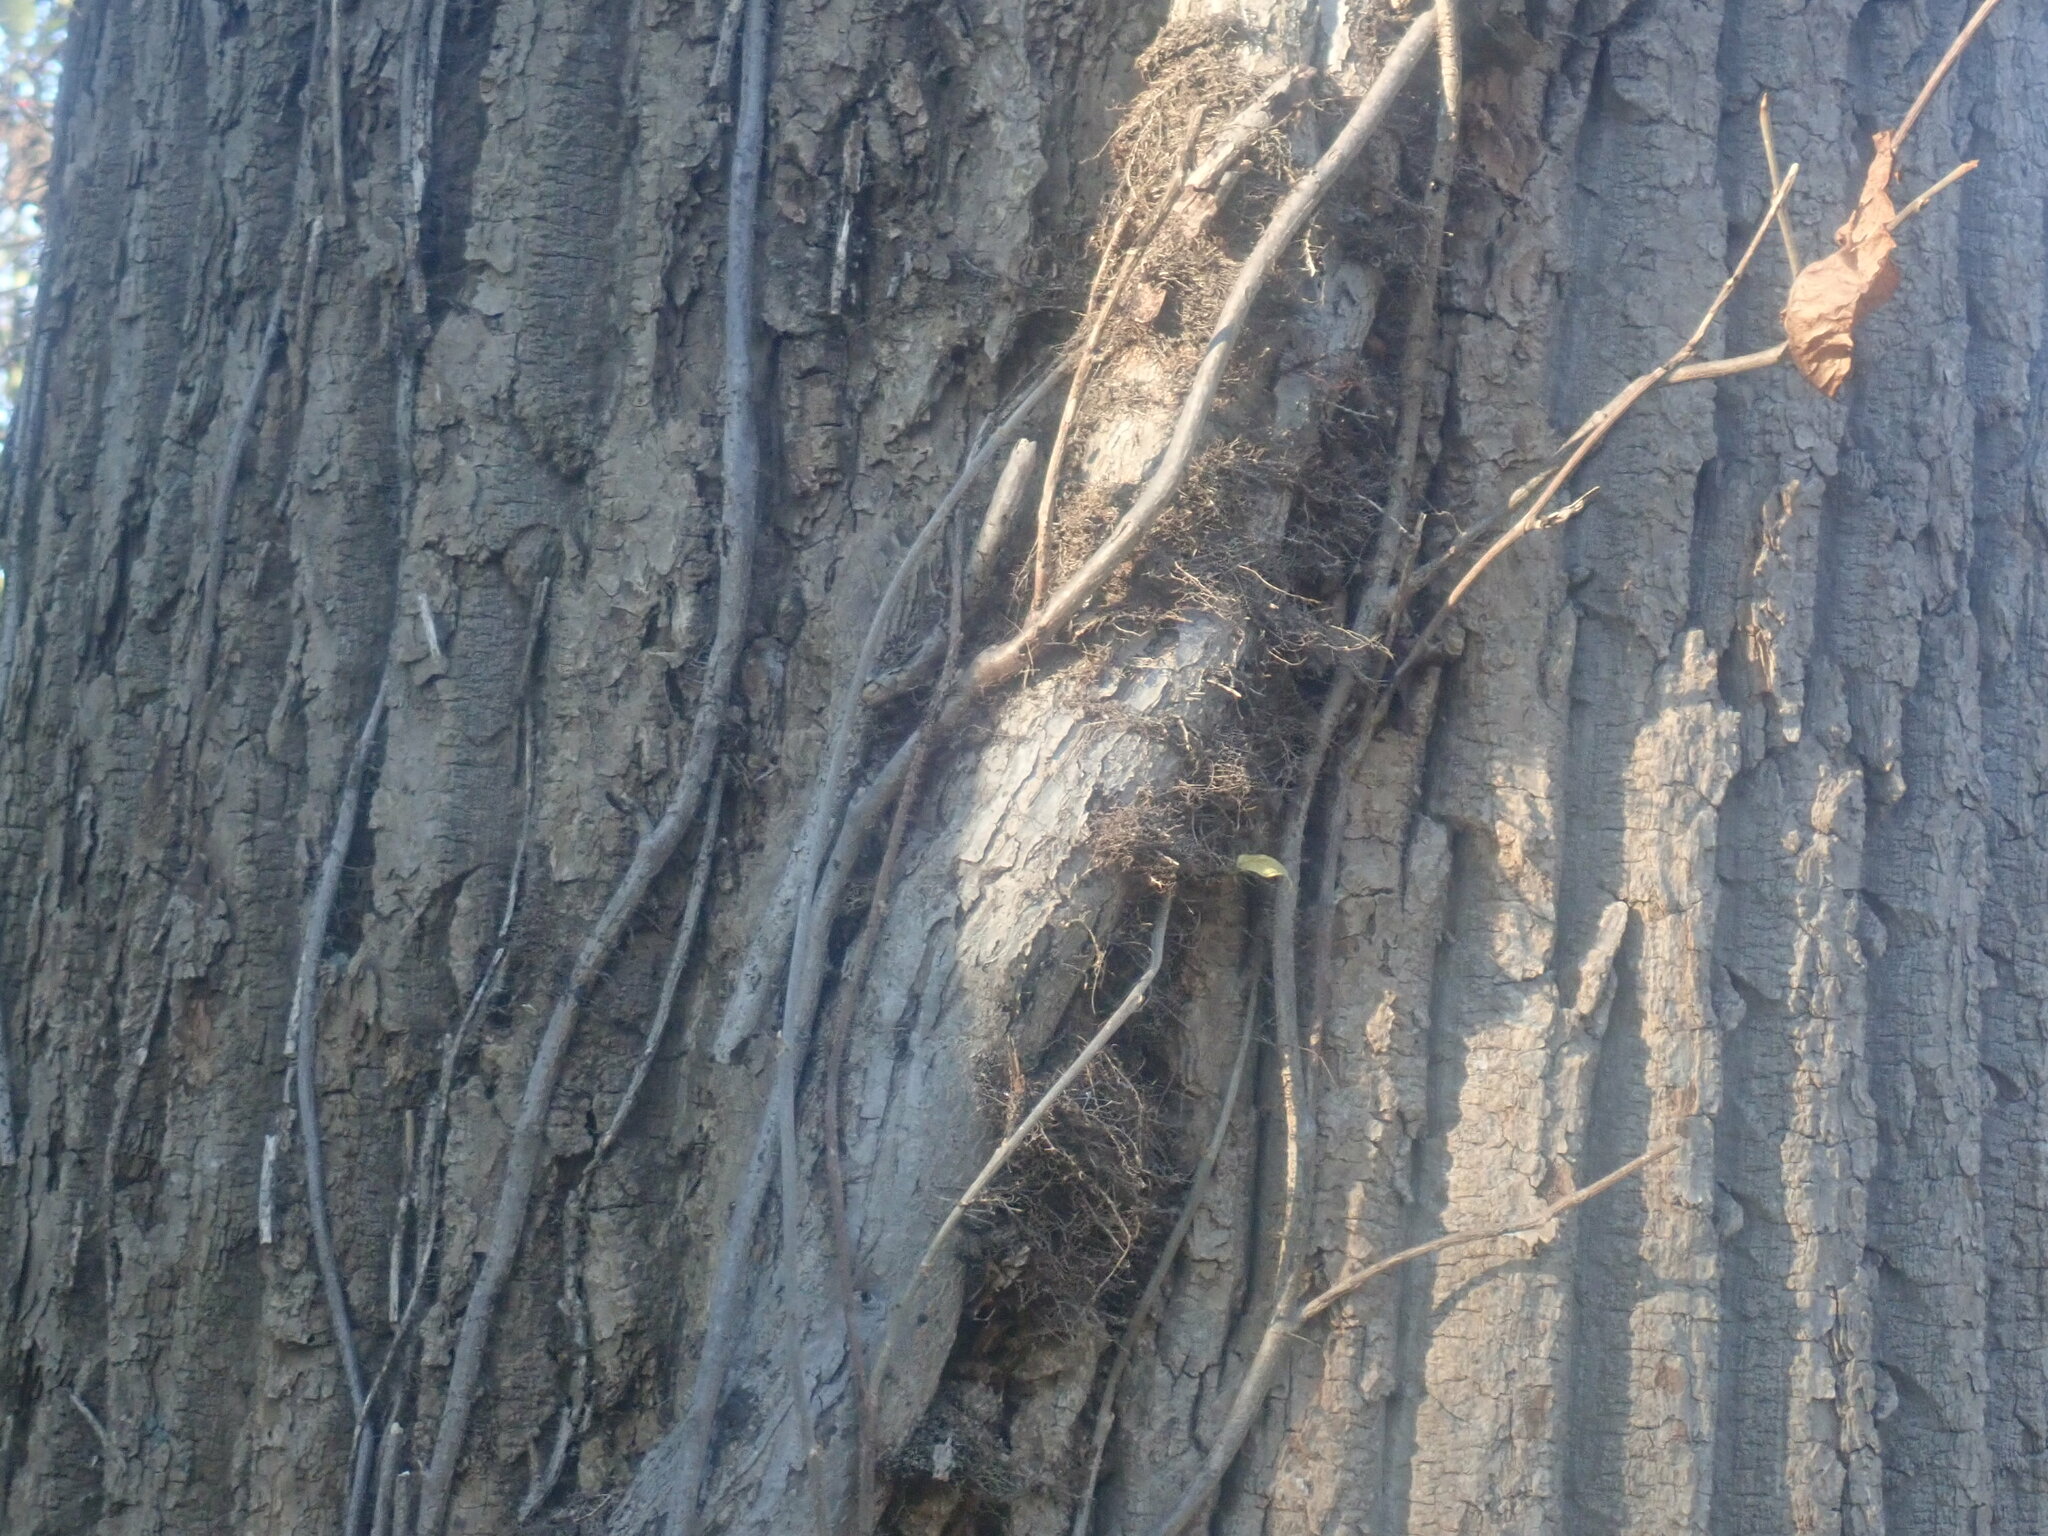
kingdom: Plantae
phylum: Tracheophyta
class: Magnoliopsida
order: Sapindales
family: Anacardiaceae
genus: Toxicodendron
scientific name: Toxicodendron radicans
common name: Poison ivy
